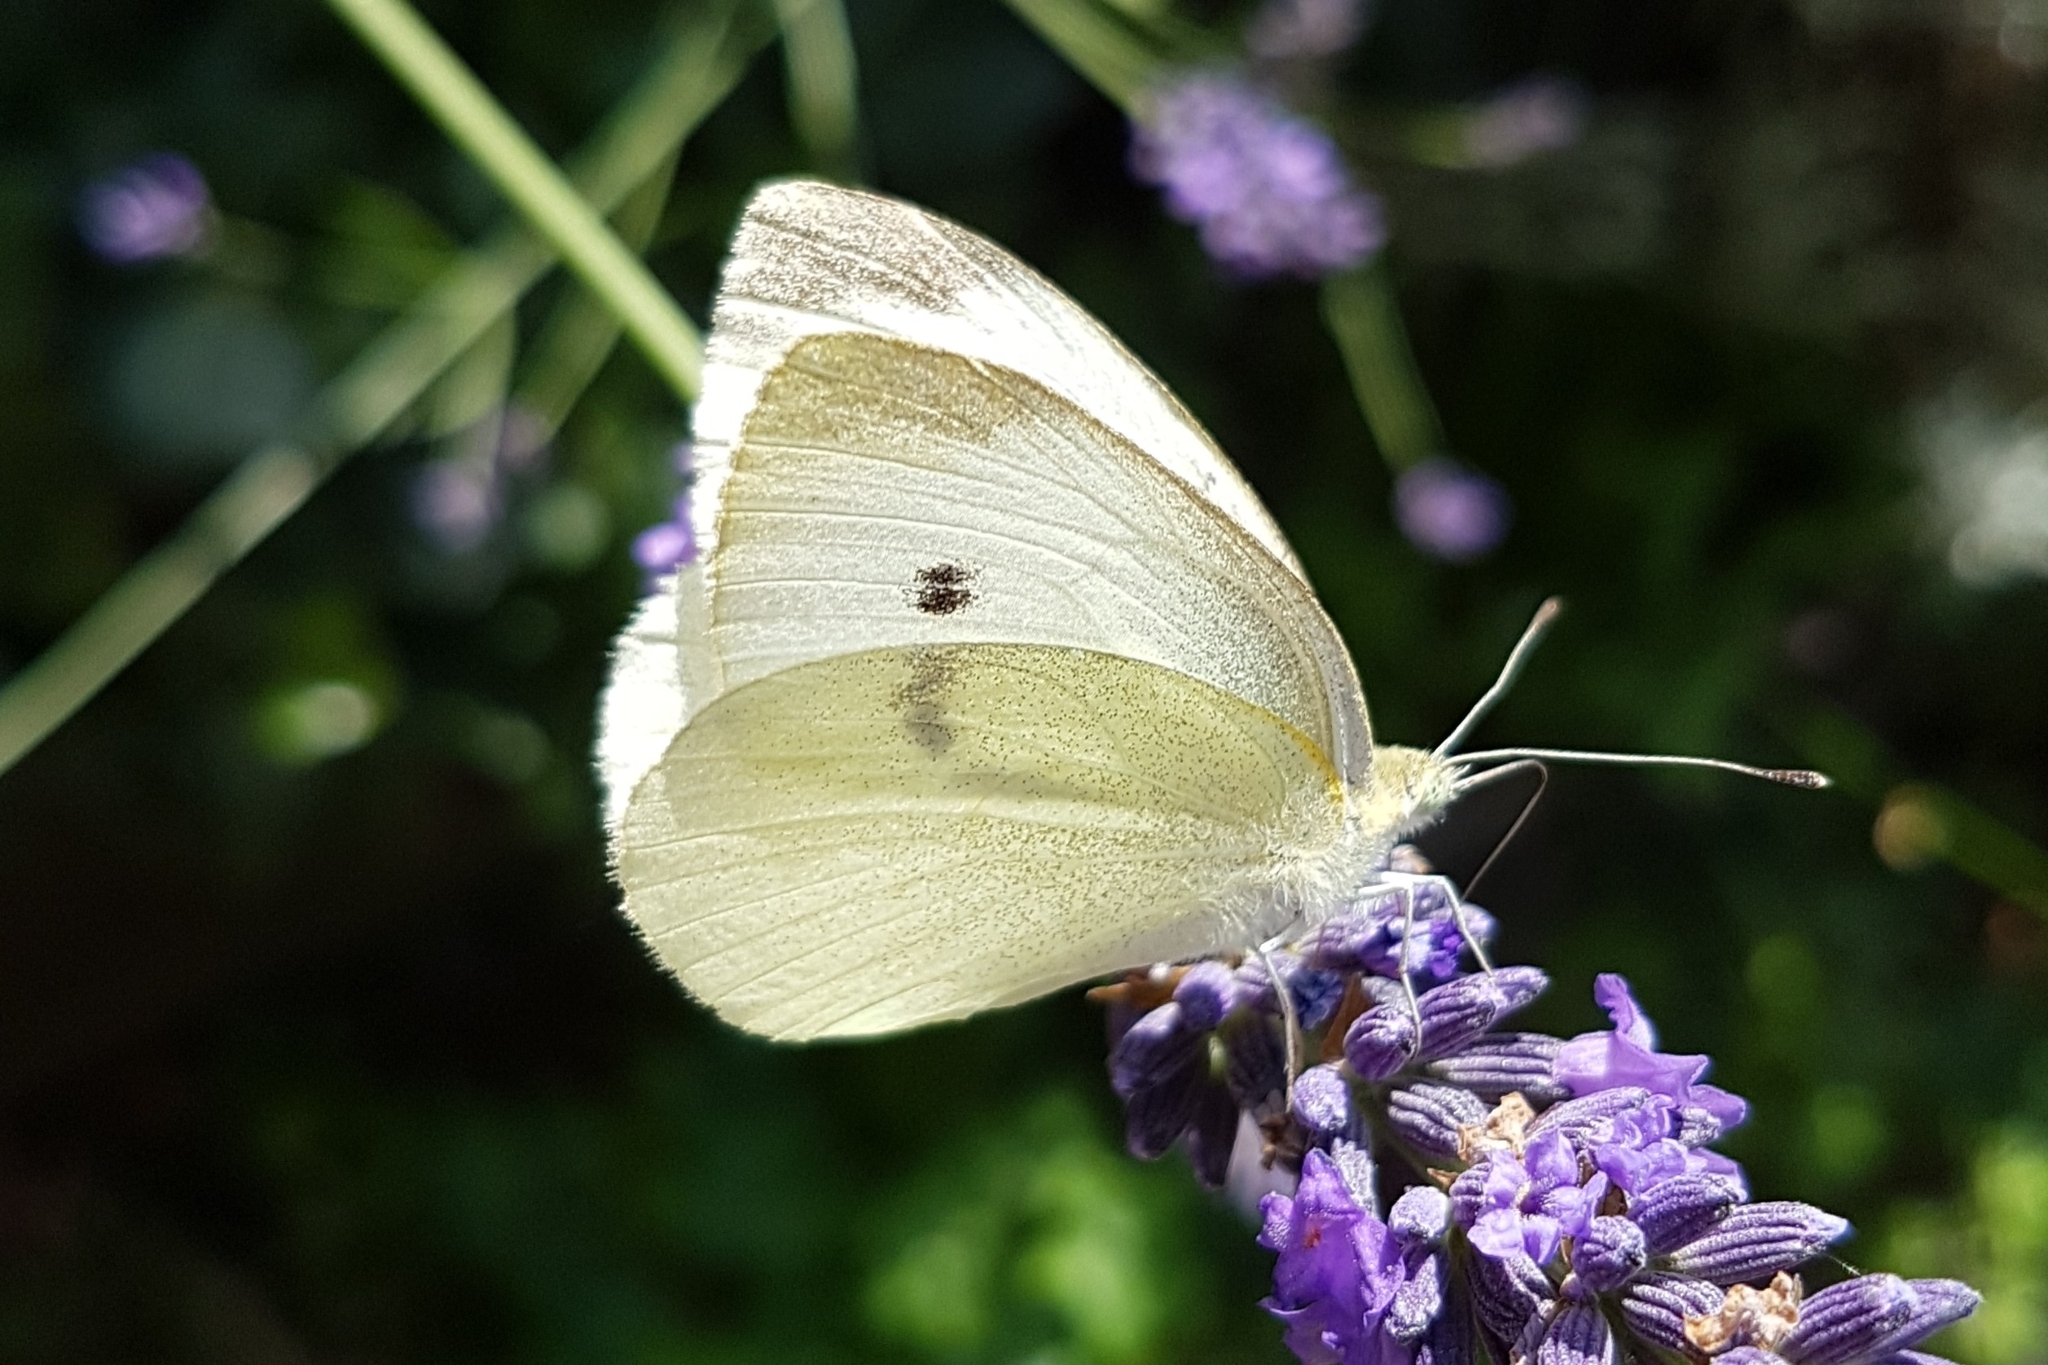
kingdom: Animalia
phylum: Arthropoda
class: Insecta
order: Lepidoptera
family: Pieridae
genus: Pieris
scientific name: Pieris rapae
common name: Small white
